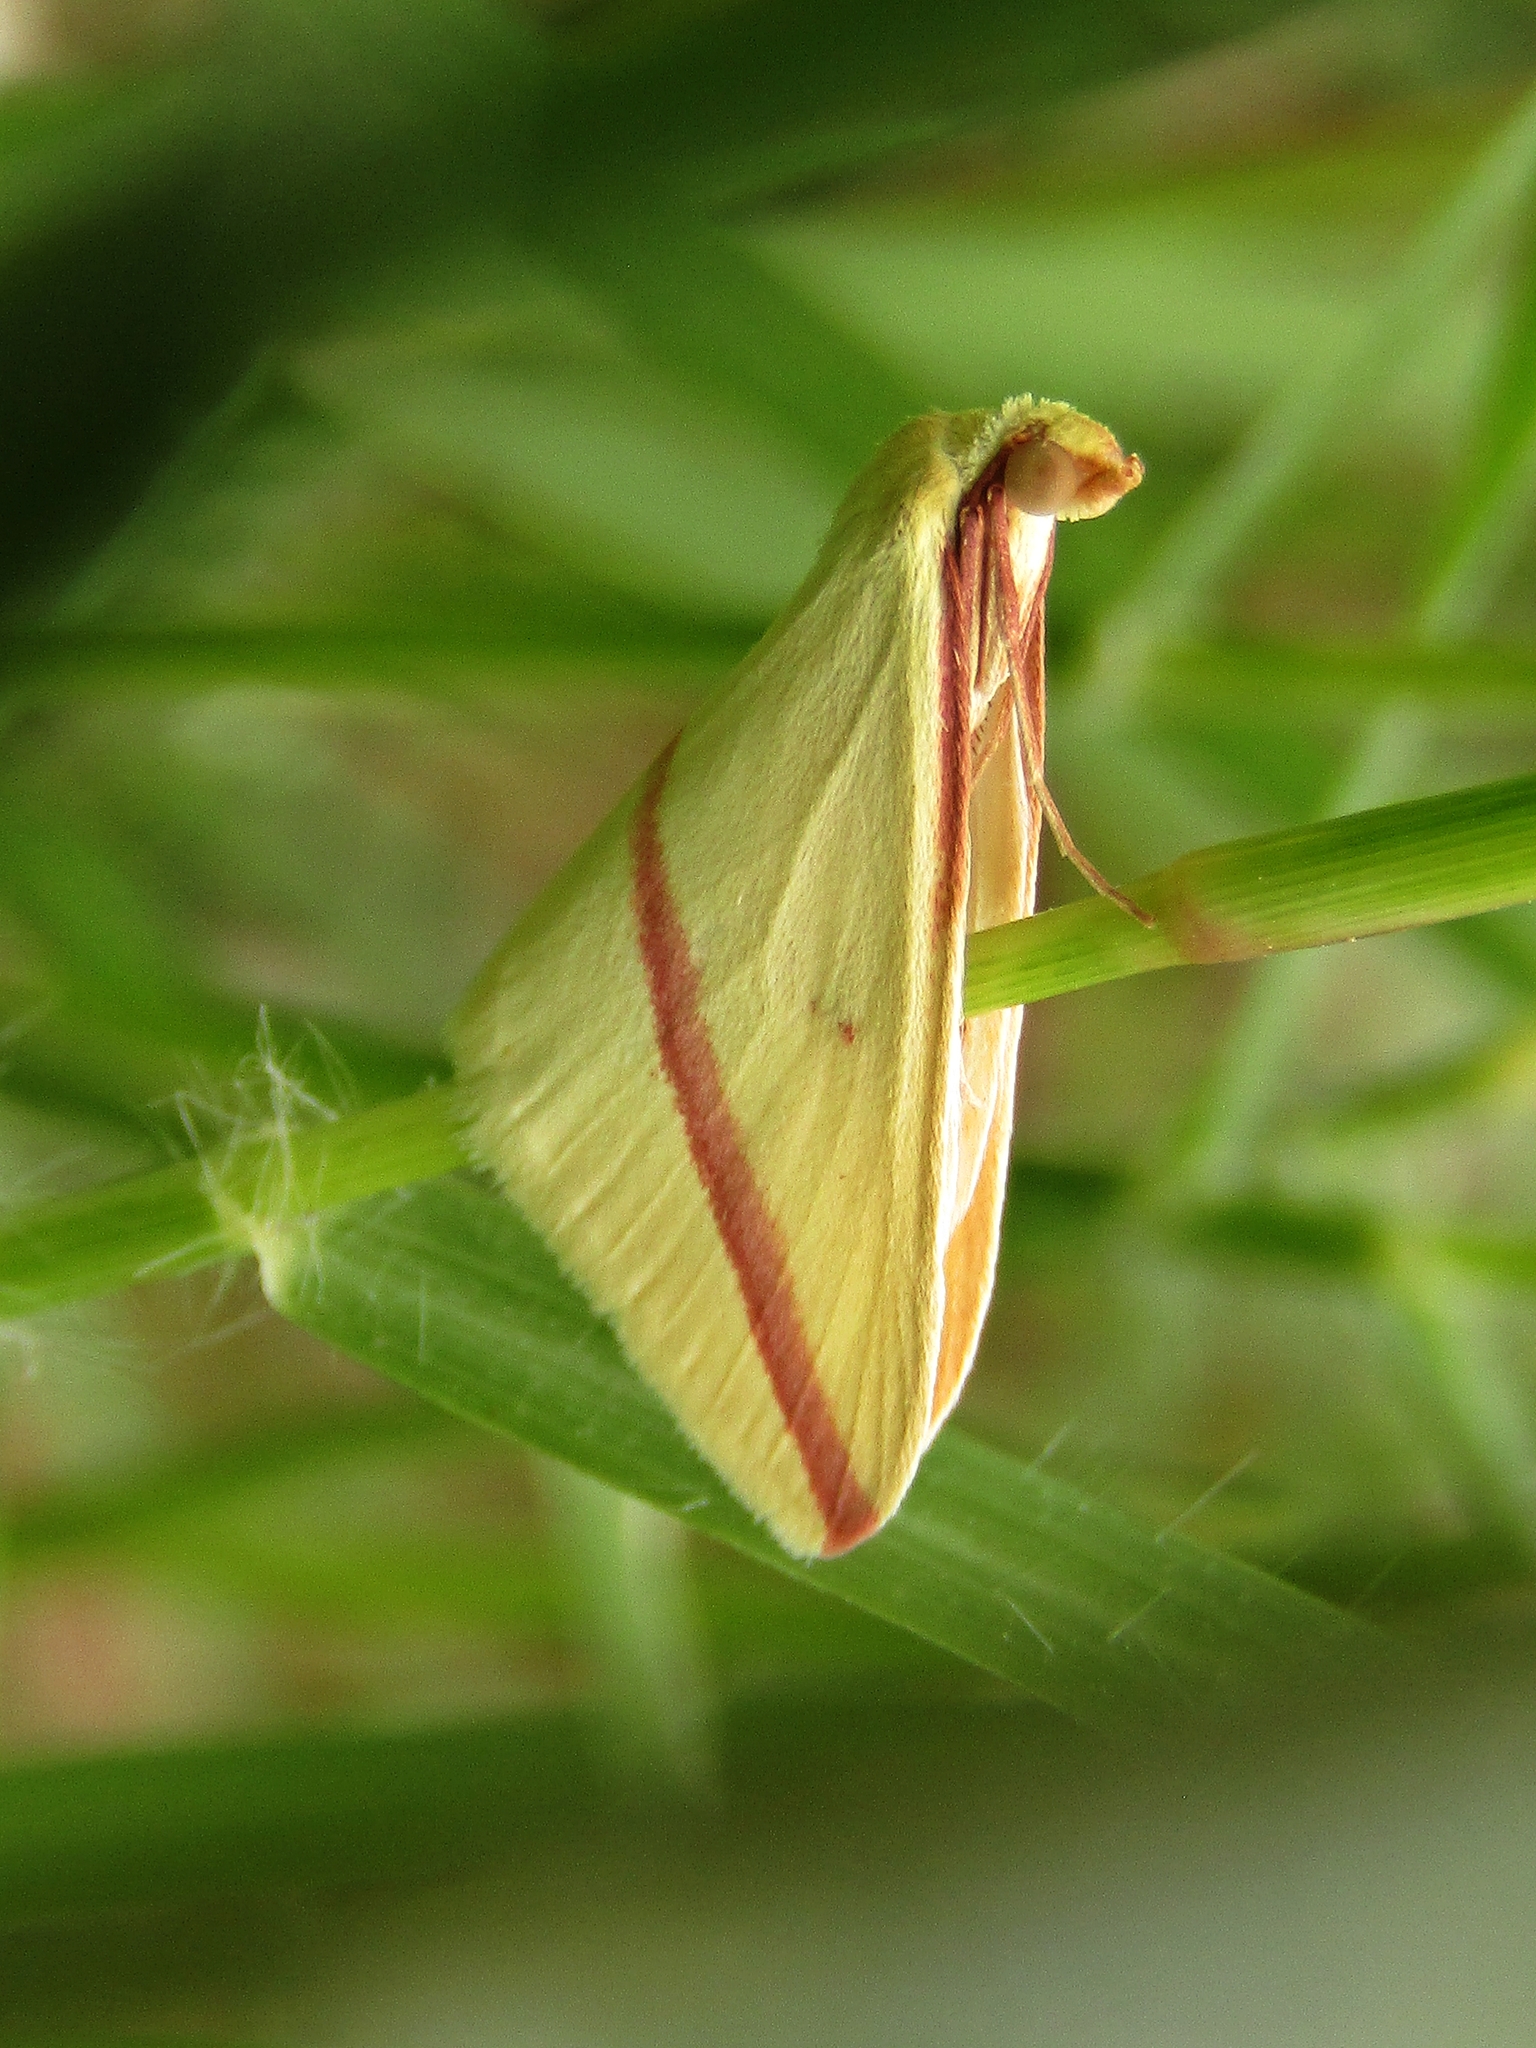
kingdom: Animalia
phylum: Arthropoda
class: Insecta
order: Lepidoptera
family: Geometridae
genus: Rhodometra
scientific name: Rhodometra sacraria
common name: Vestal
